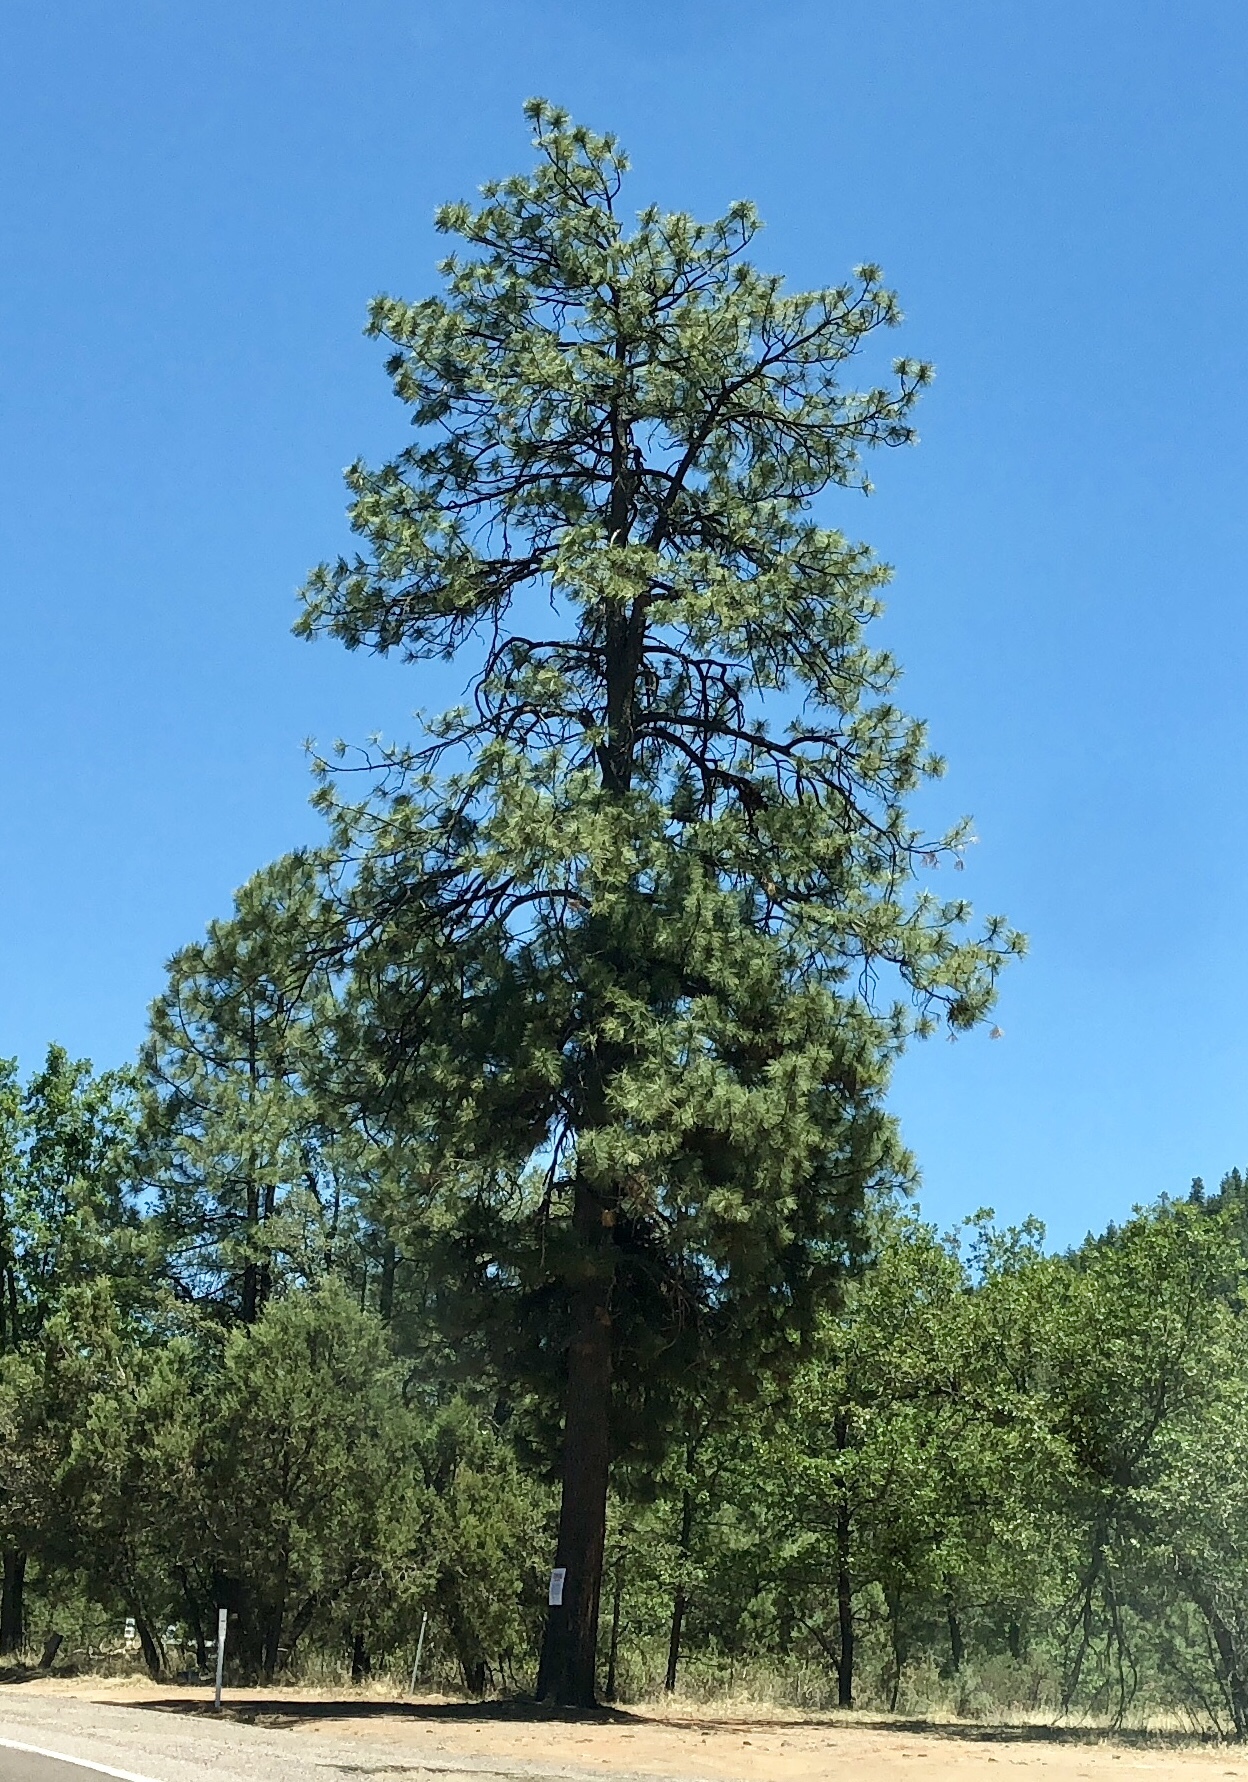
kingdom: Plantae
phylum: Tracheophyta
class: Pinopsida
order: Pinales
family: Pinaceae
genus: Pinus
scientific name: Pinus ponderosa
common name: Western yellow-pine
